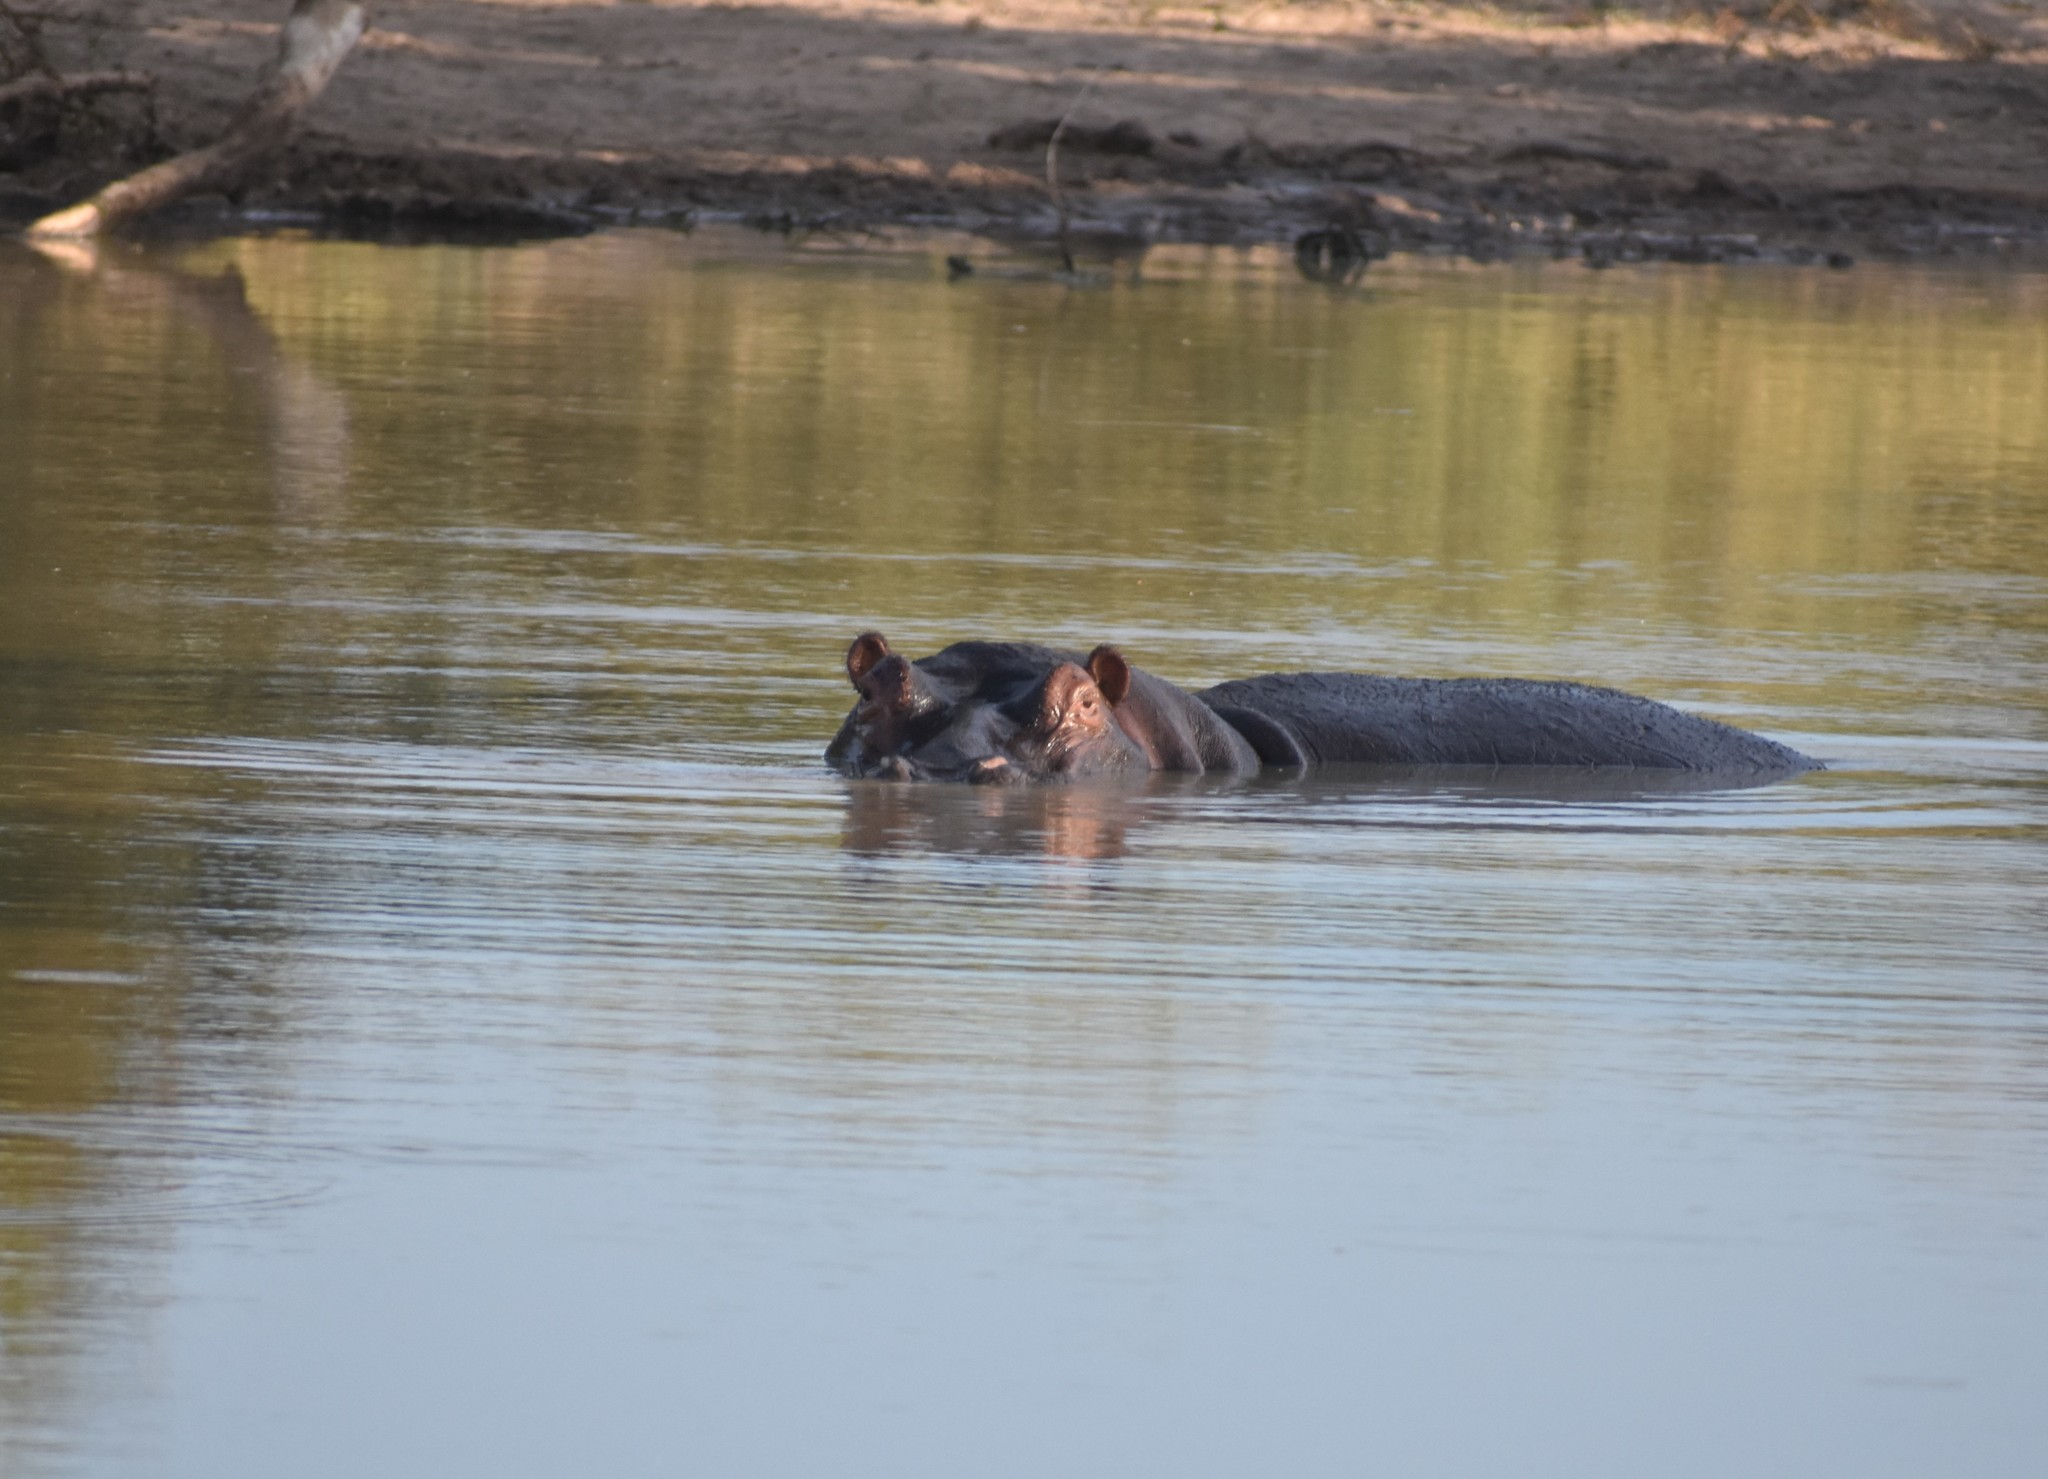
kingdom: Animalia
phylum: Chordata
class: Mammalia
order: Artiodactyla
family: Hippopotamidae
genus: Hippopotamus
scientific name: Hippopotamus amphibius
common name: Common hippopotamus
